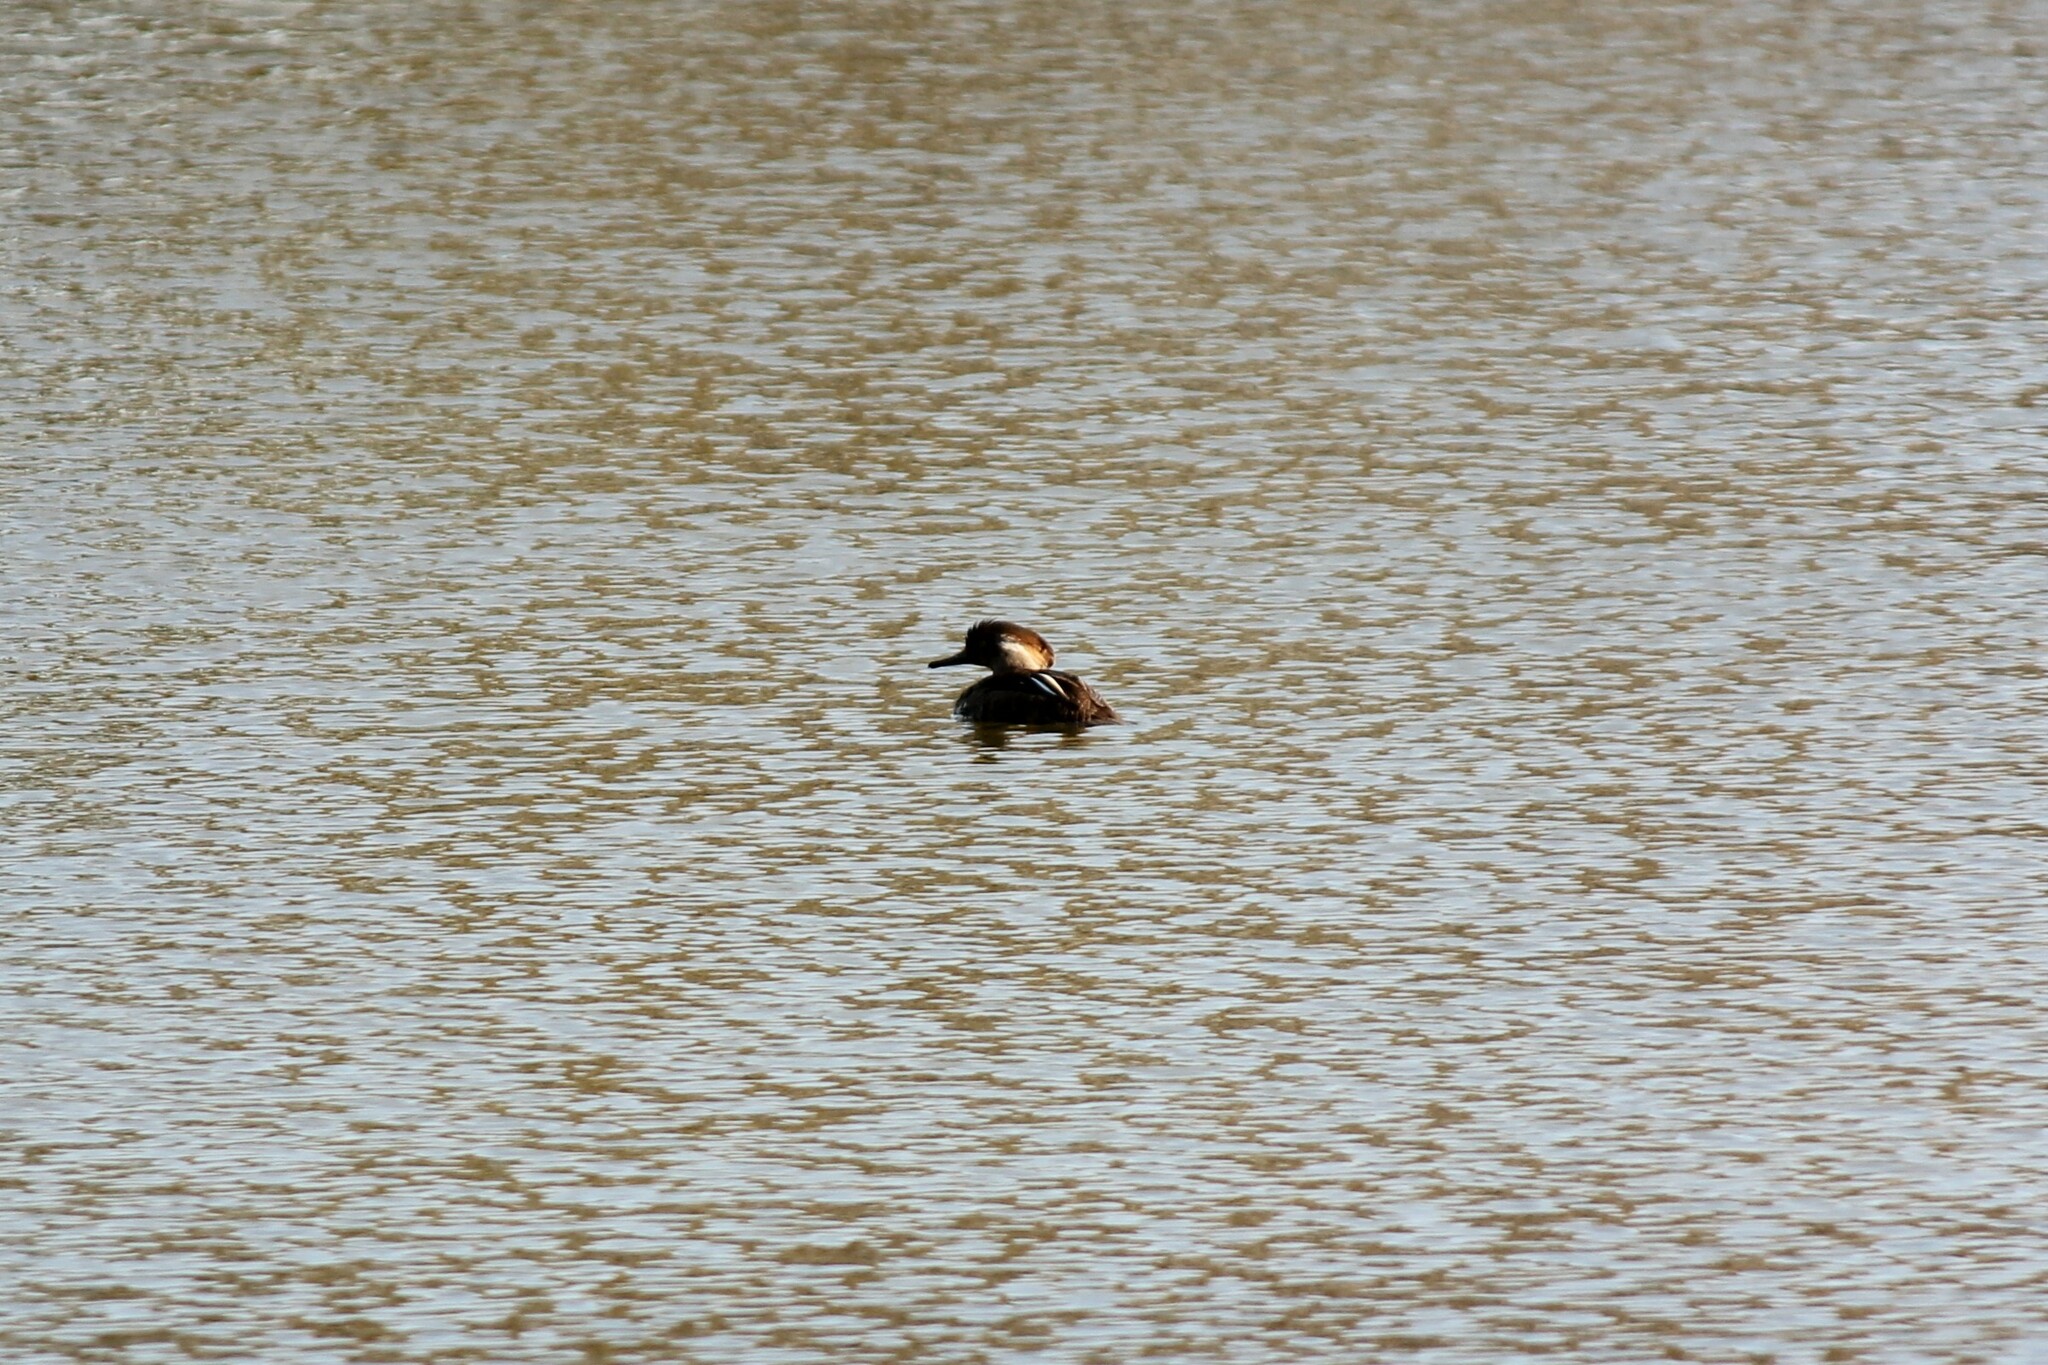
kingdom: Animalia
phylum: Chordata
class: Aves
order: Anseriformes
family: Anatidae
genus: Lophodytes
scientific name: Lophodytes cucullatus
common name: Hooded merganser
